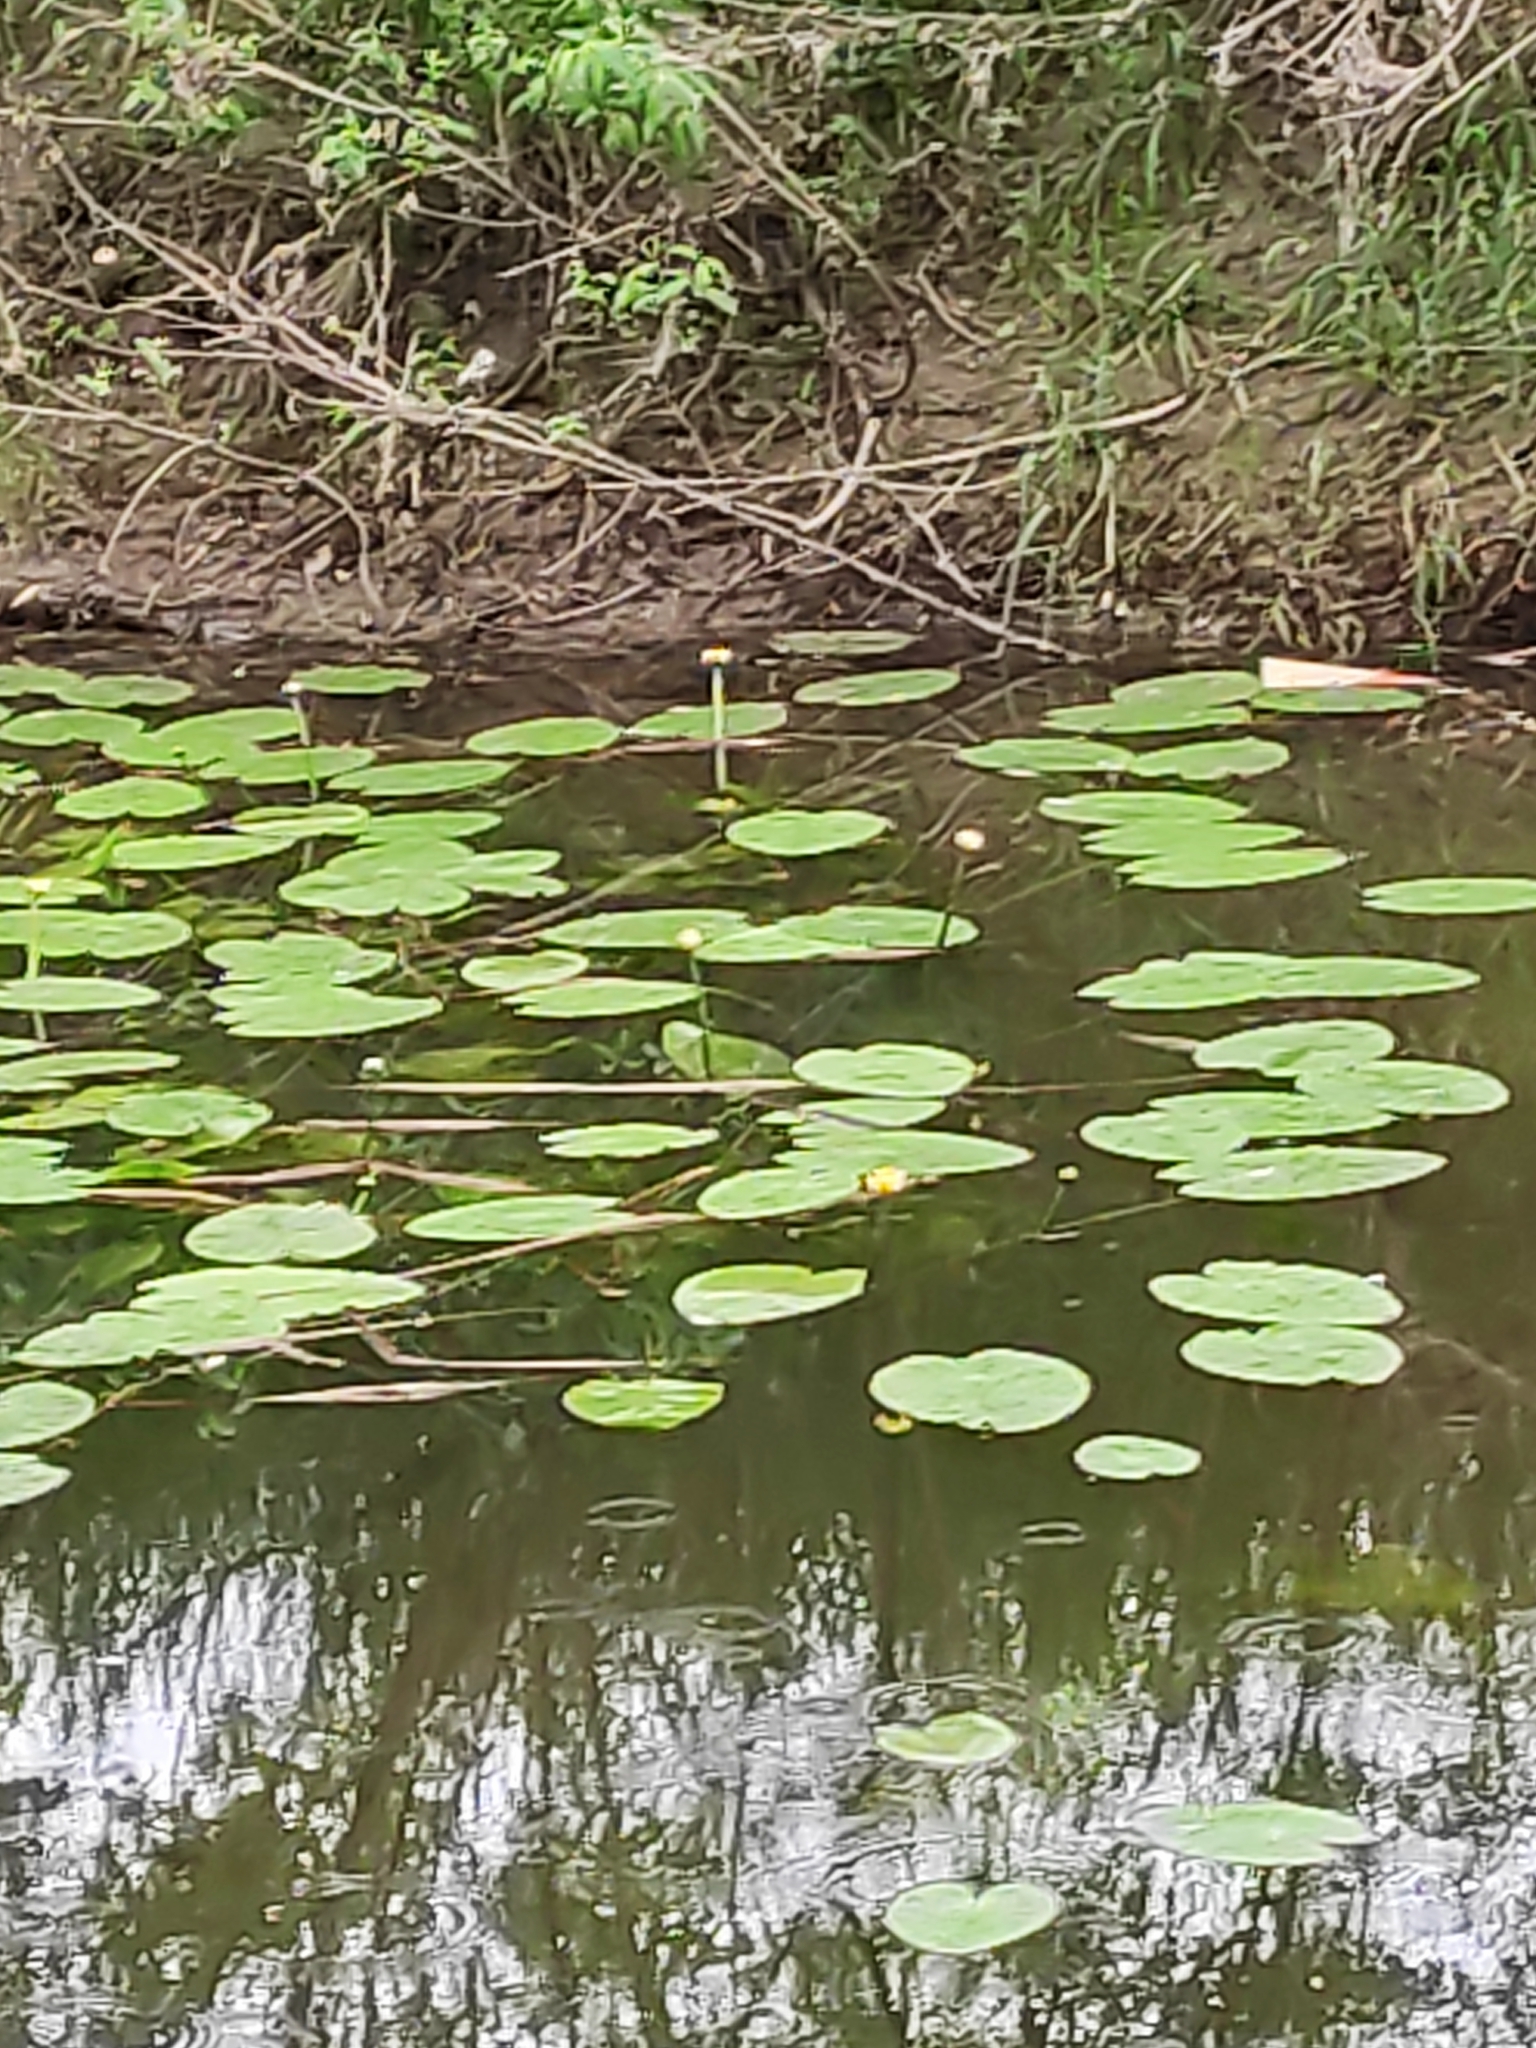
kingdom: Plantae
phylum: Tracheophyta
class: Magnoliopsida
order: Nymphaeales
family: Nymphaeaceae
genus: Nuphar
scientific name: Nuphar lutea
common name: Yellow water-lily
